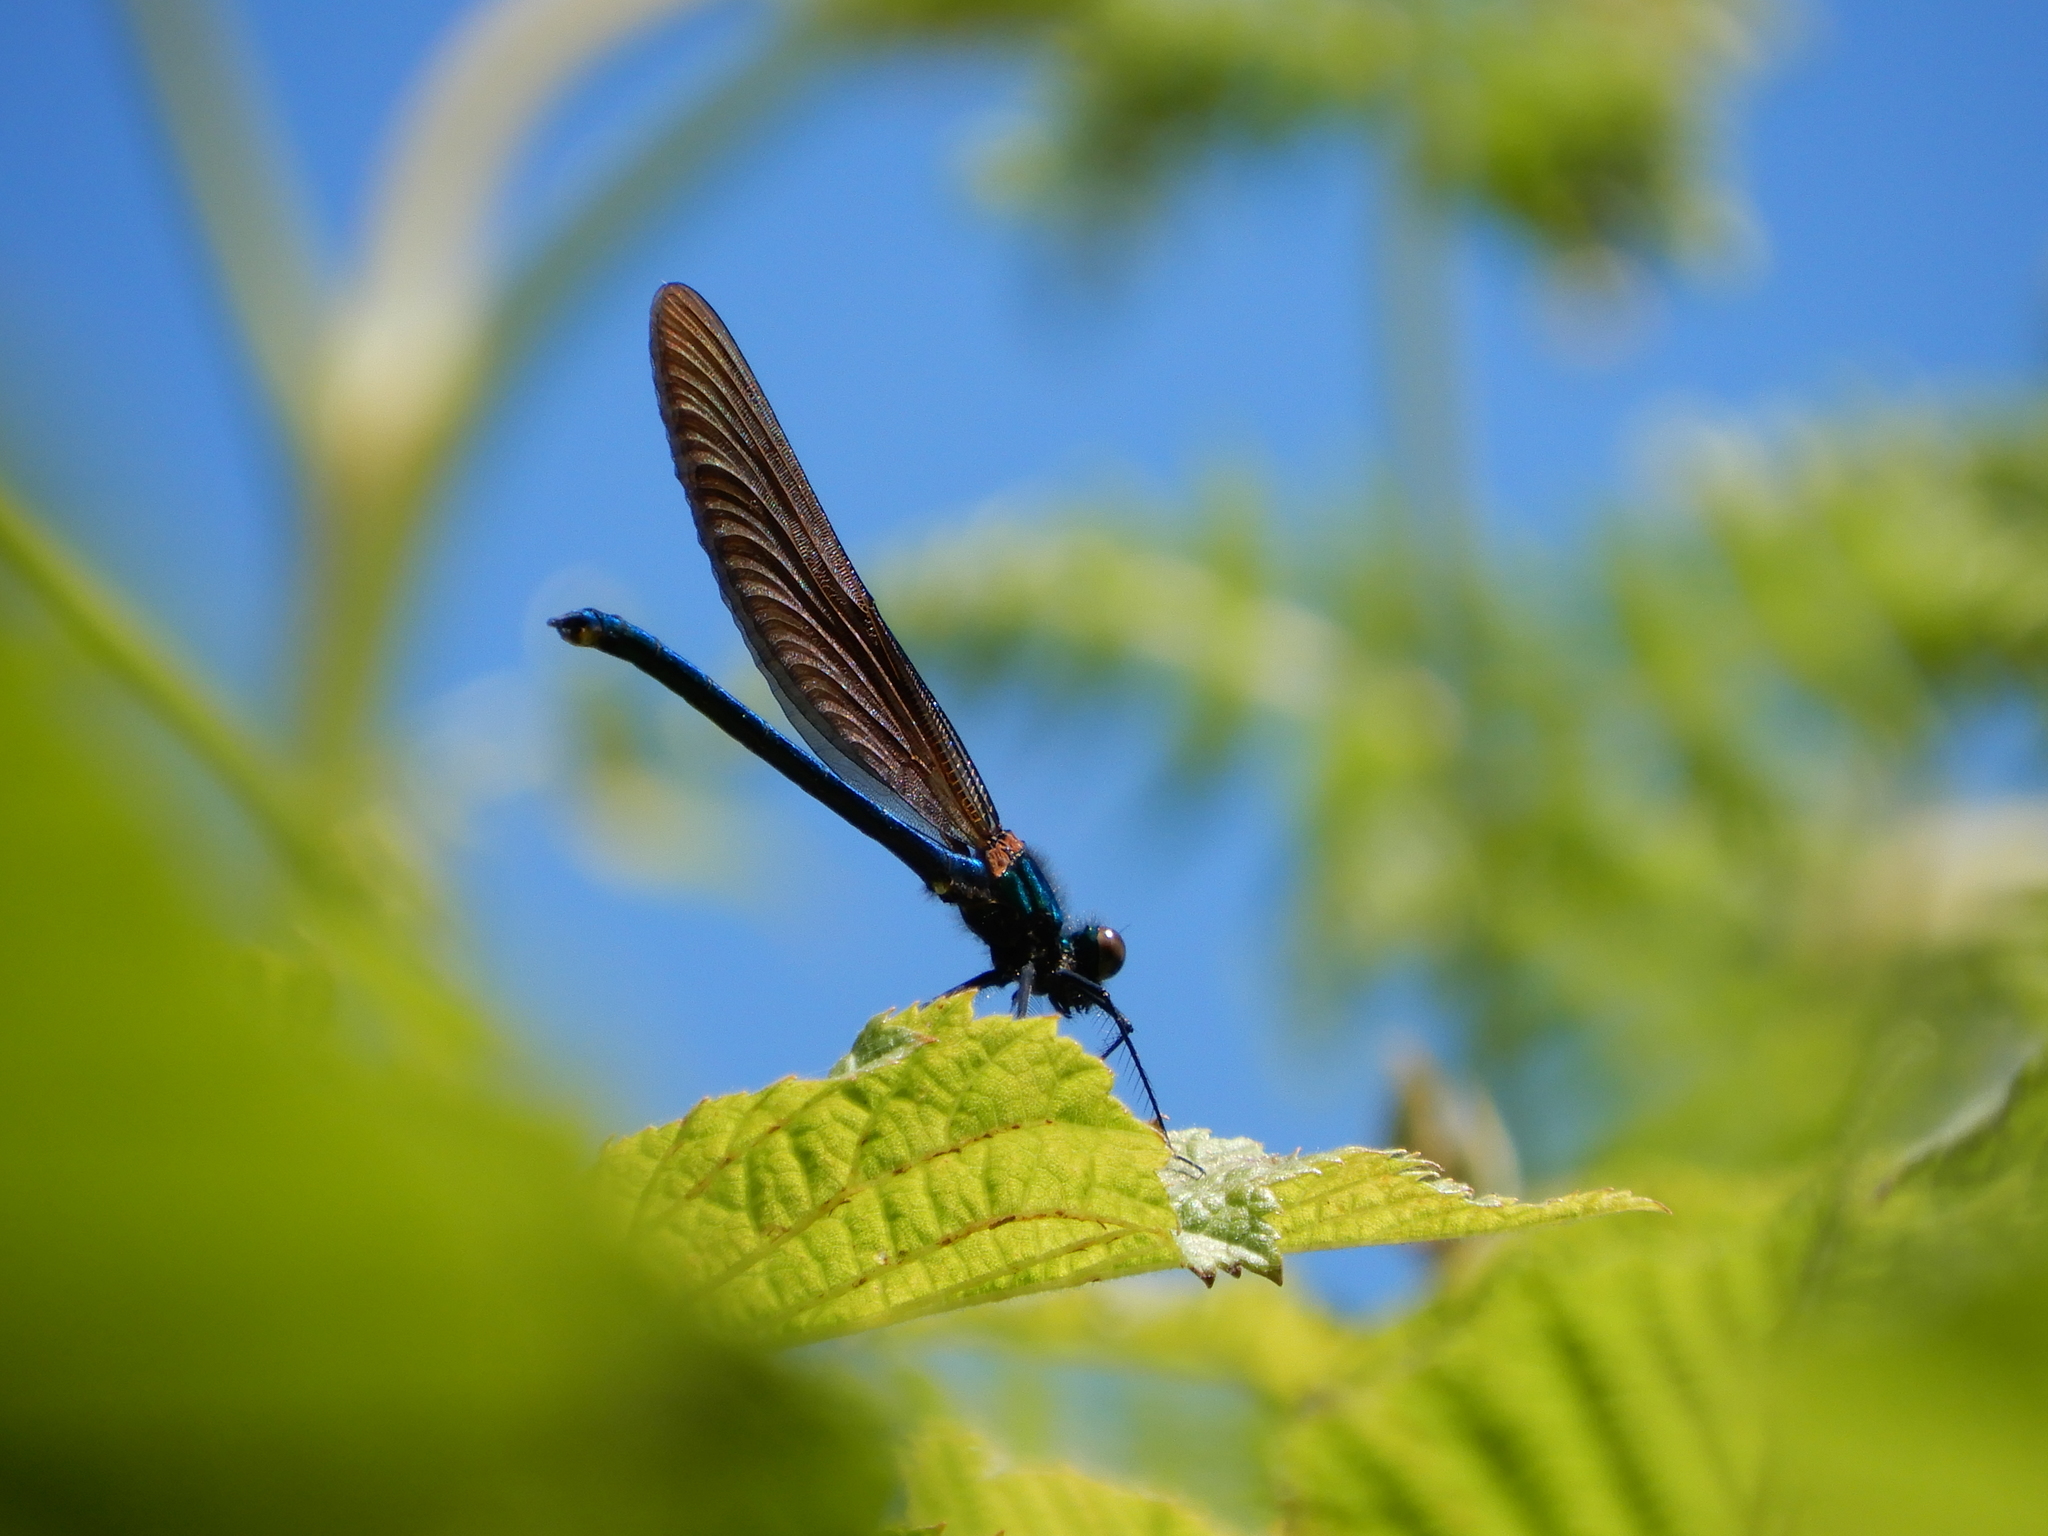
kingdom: Animalia
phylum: Arthropoda
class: Insecta
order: Odonata
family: Calopterygidae
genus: Calopteryx
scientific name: Calopteryx virgo
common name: Beautiful demoiselle
